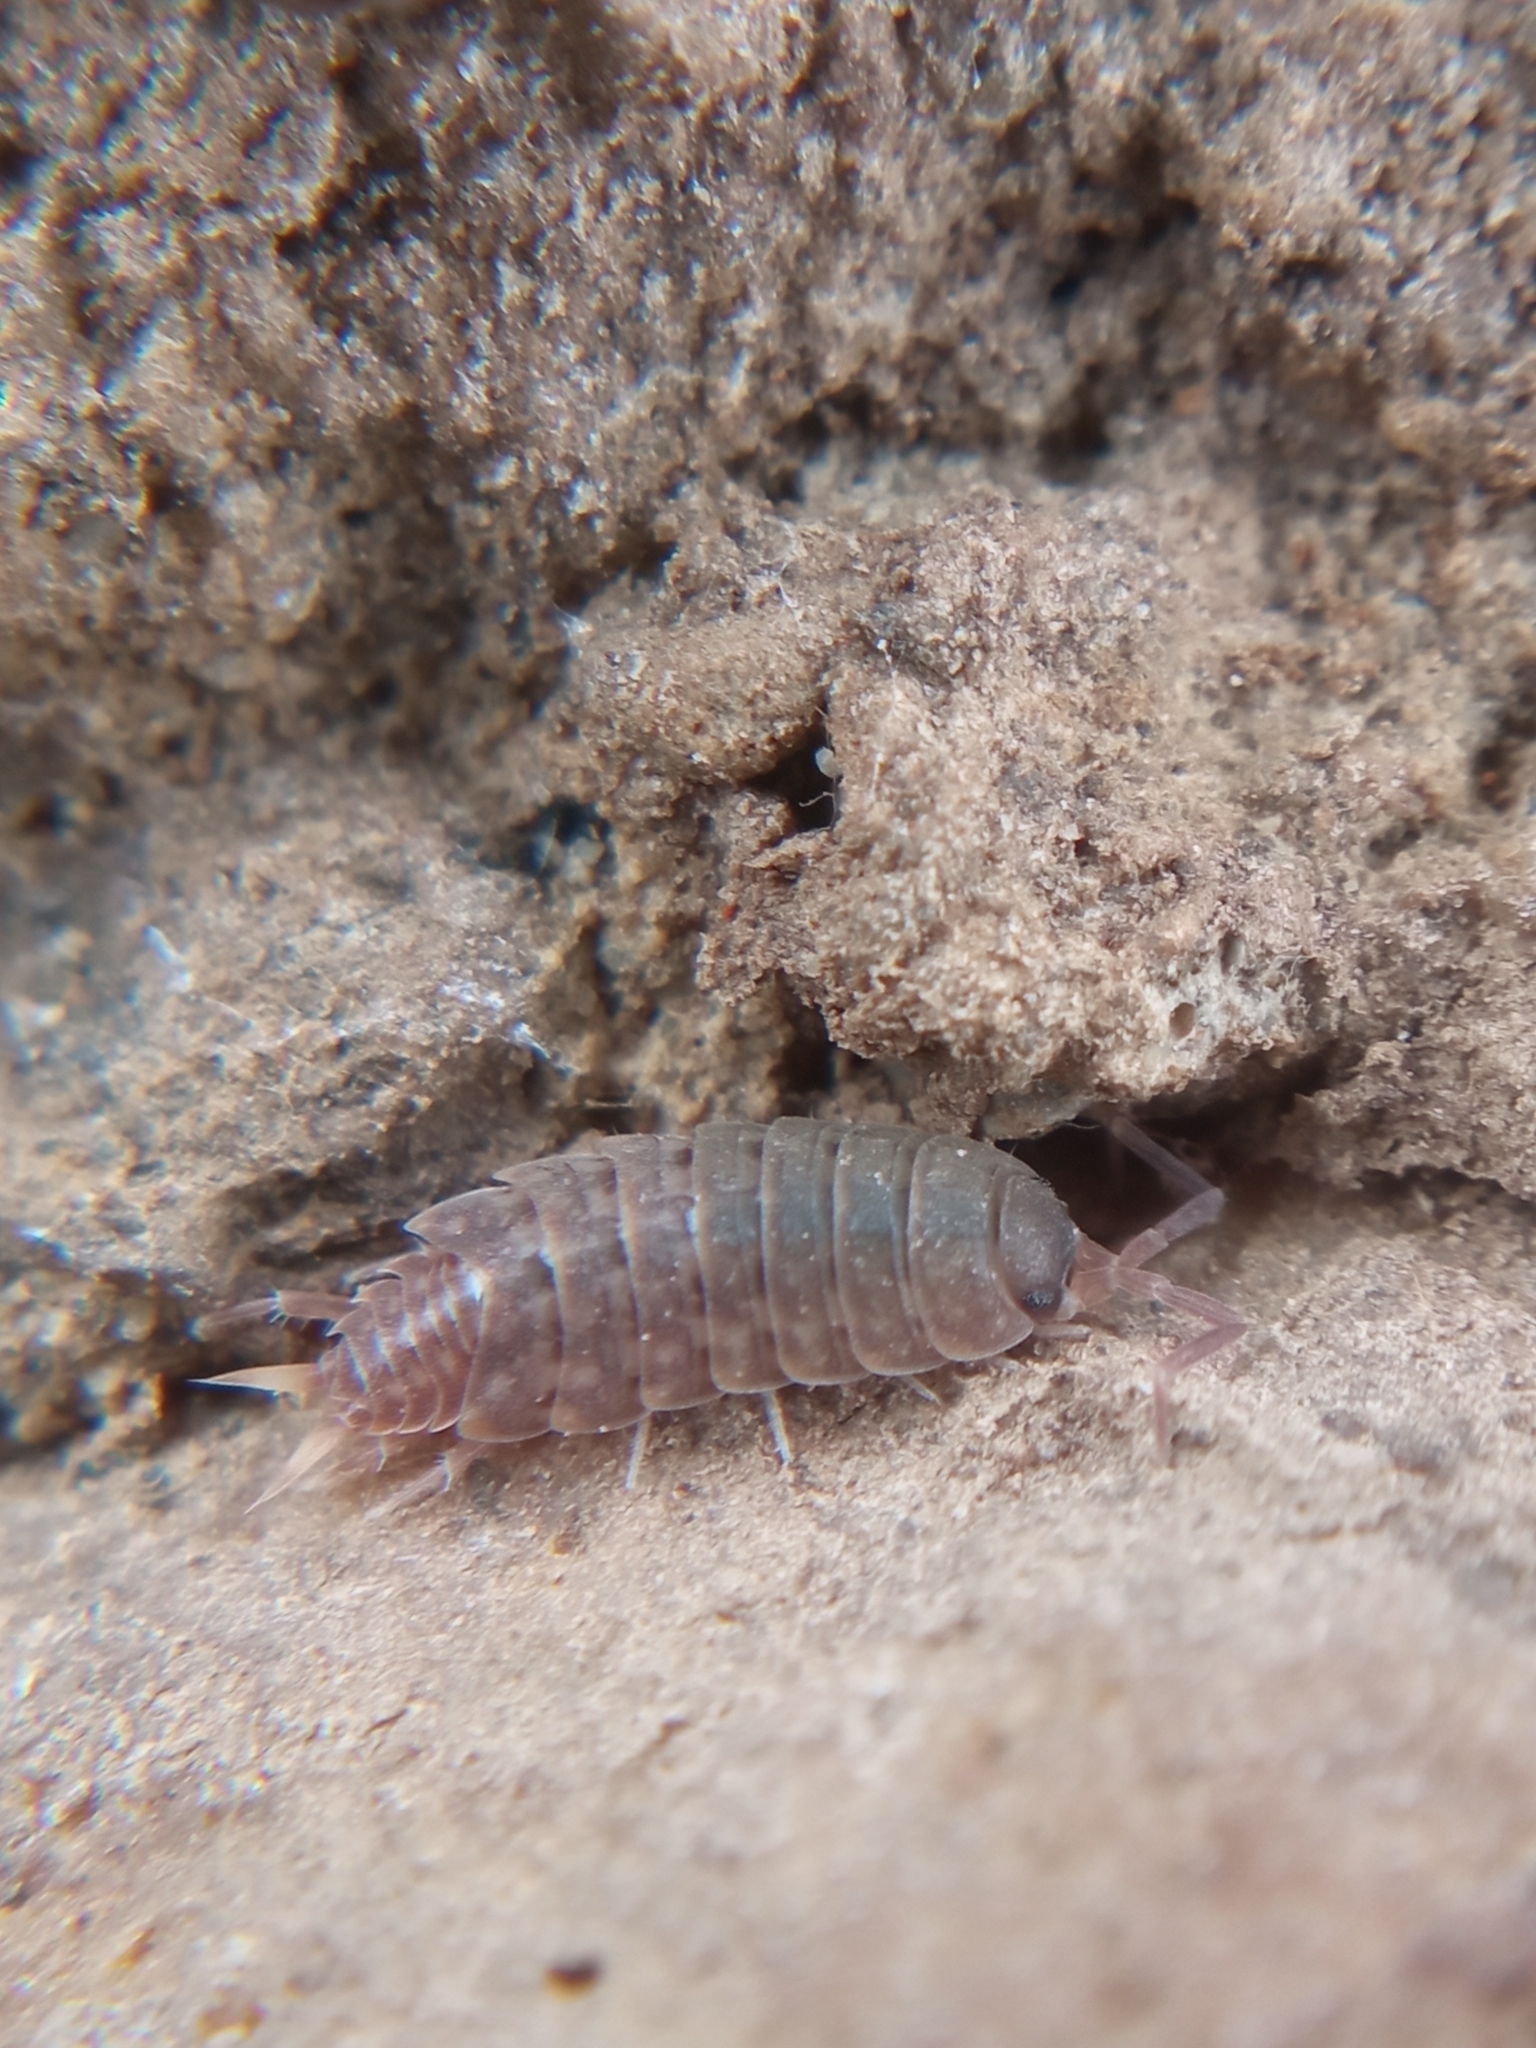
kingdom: Animalia
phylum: Arthropoda
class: Malacostraca
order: Isopoda
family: Agnaridae
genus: Orthometopon
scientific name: Orthometopon planum
